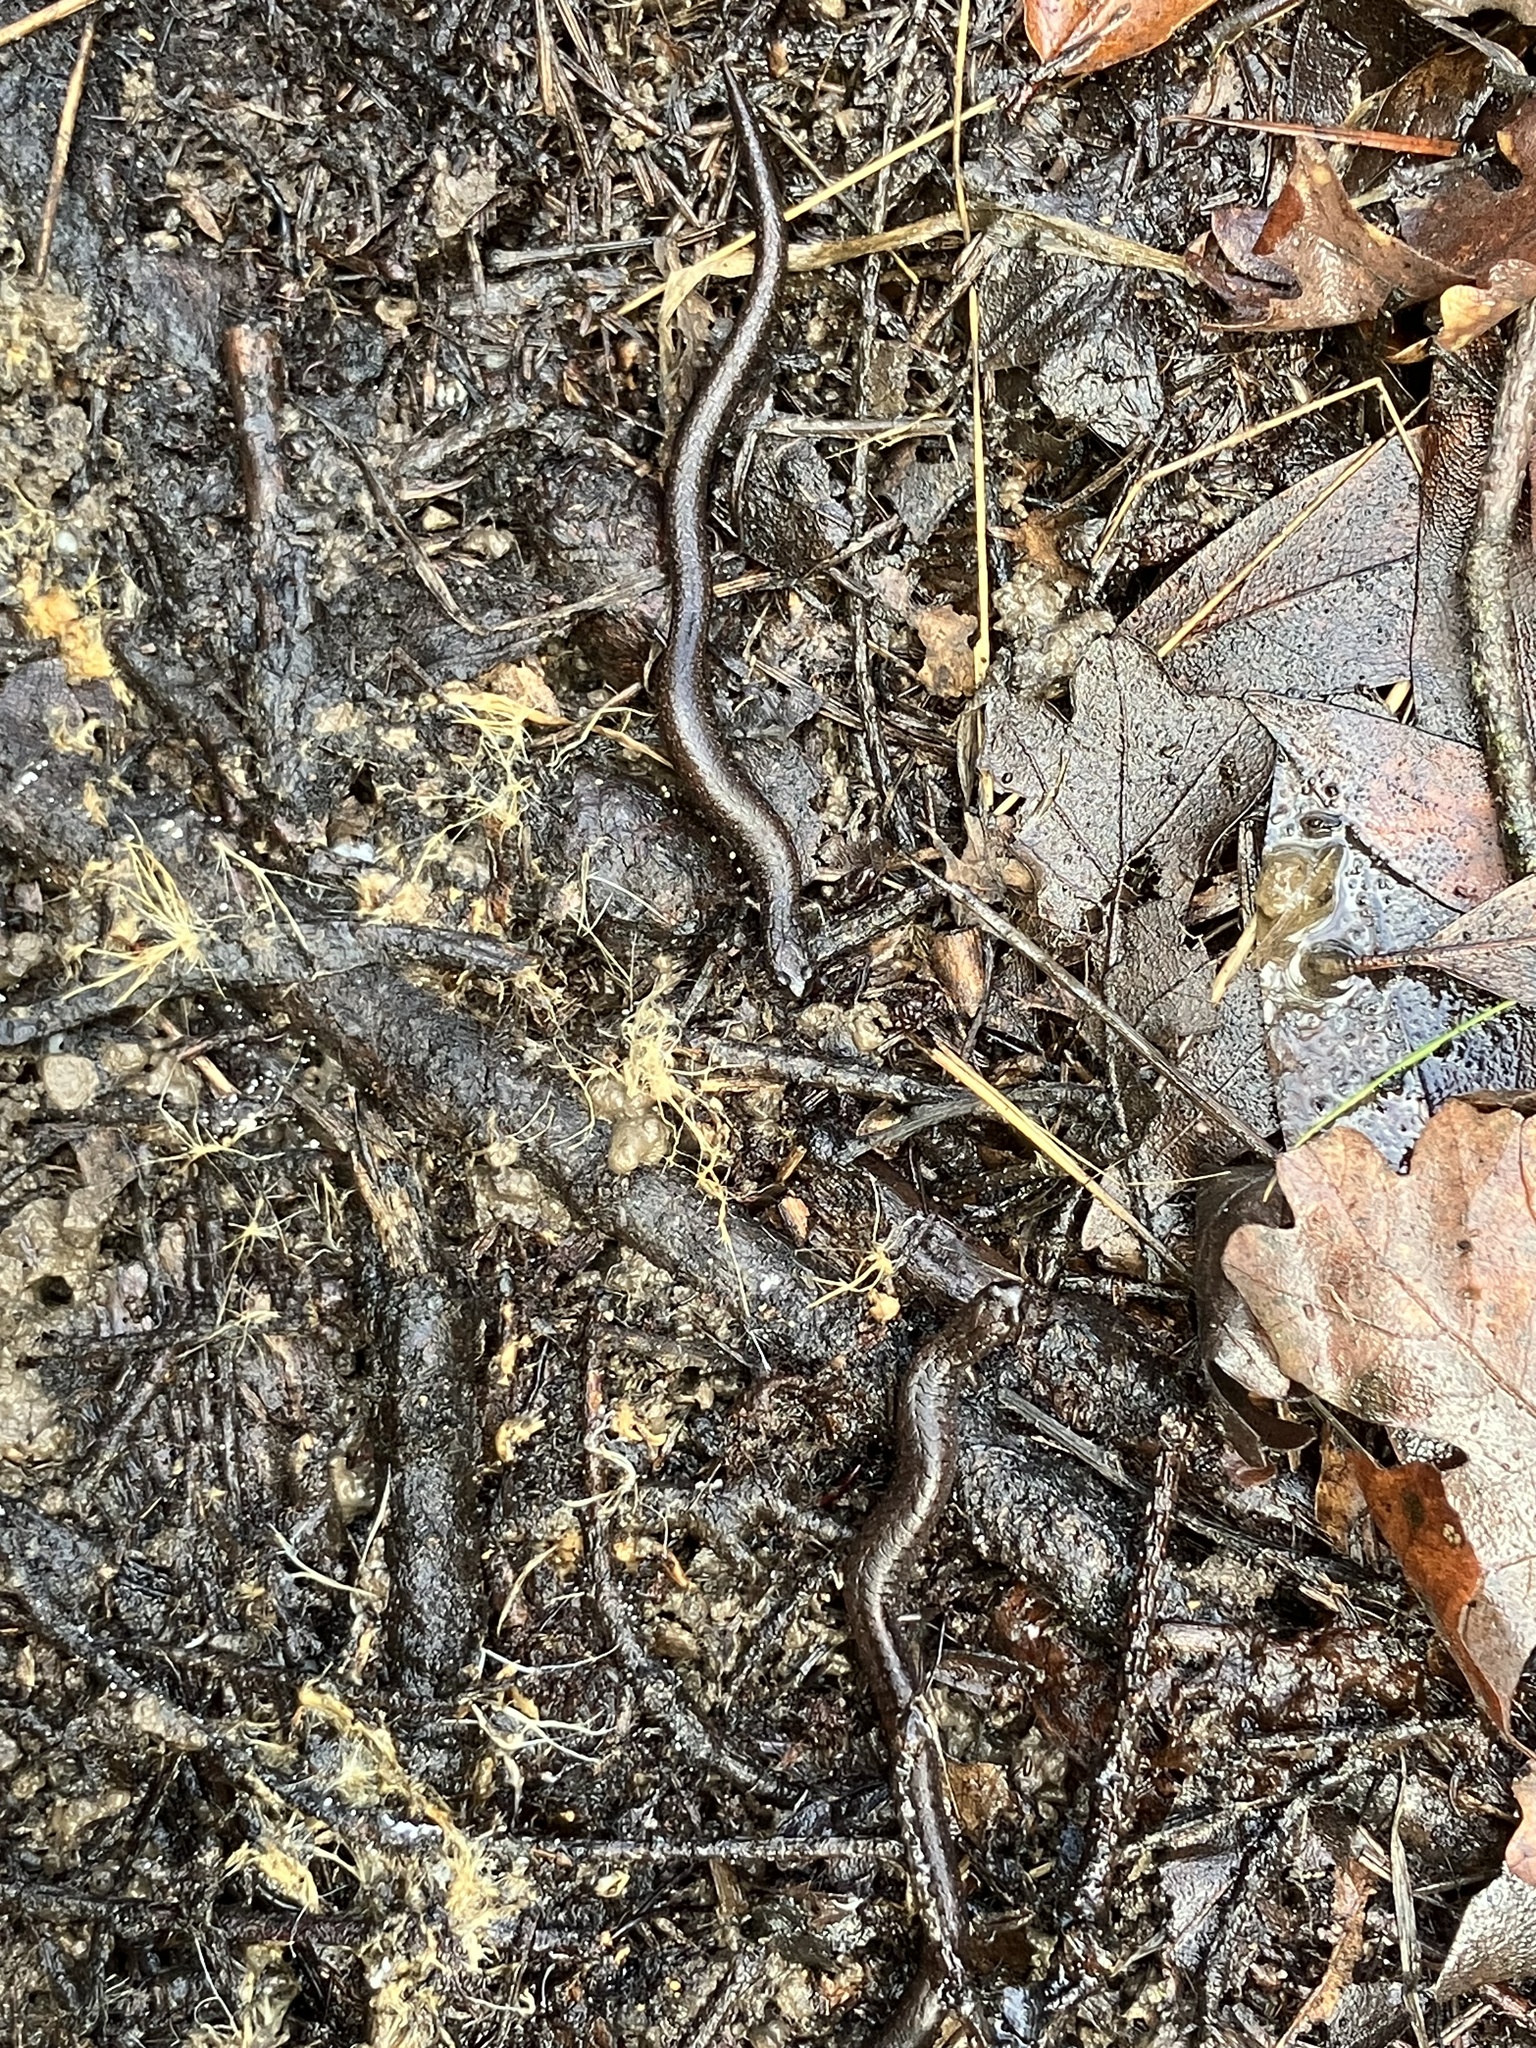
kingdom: Animalia
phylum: Chordata
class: Amphibia
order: Caudata
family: Plethodontidae
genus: Batrachoseps
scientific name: Batrachoseps attenuatus
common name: California slender salamander
